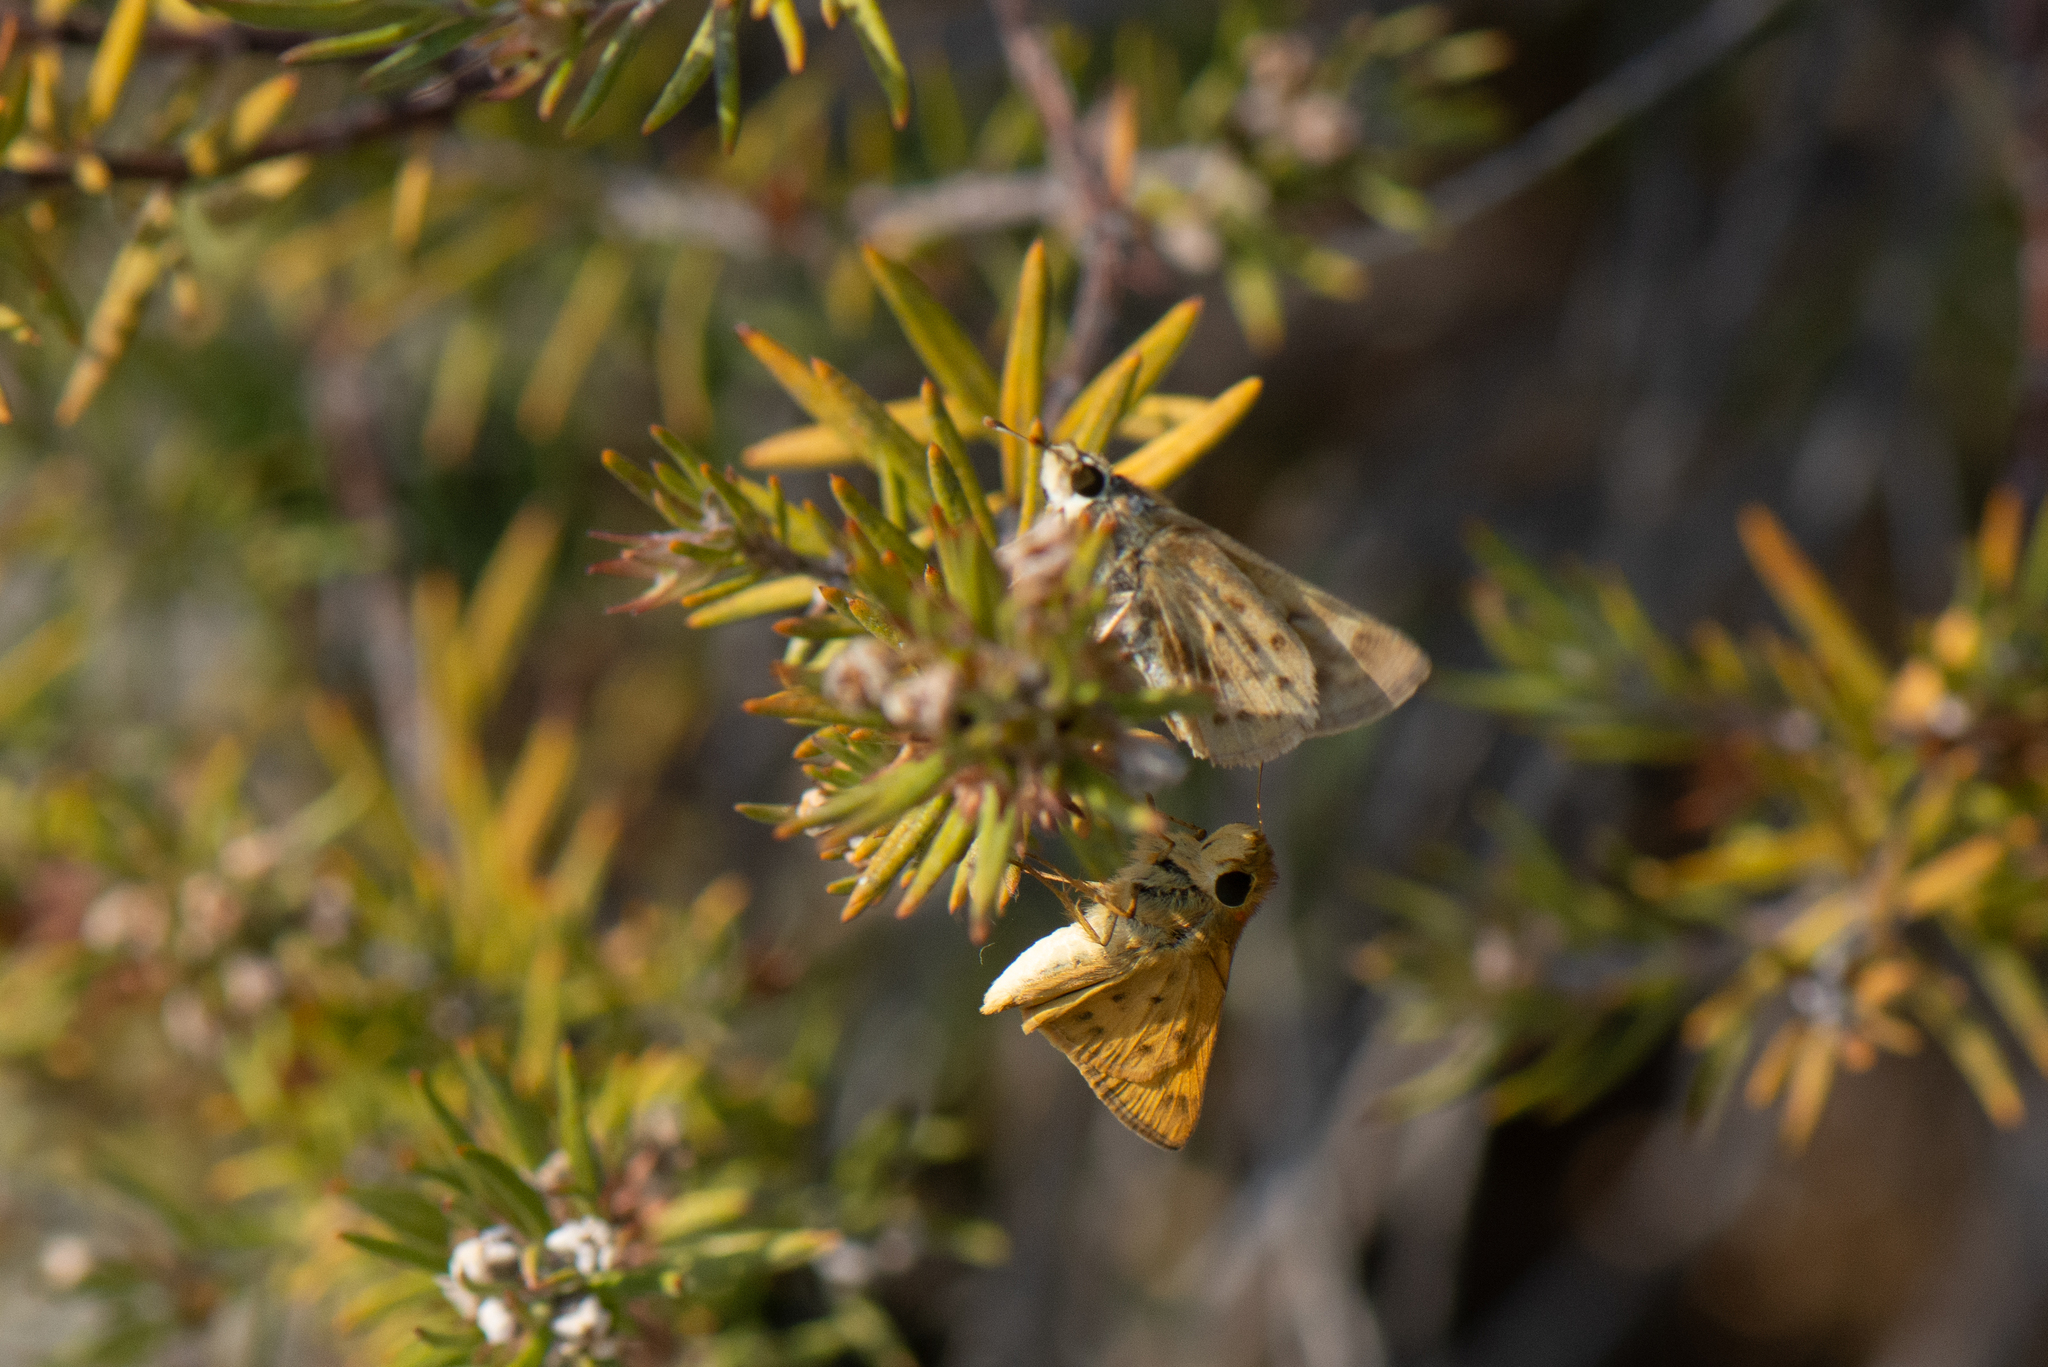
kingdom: Animalia
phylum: Arthropoda
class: Insecta
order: Lepidoptera
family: Hesperiidae
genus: Hylephila
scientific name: Hylephila phyleus
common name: Fiery skipper
